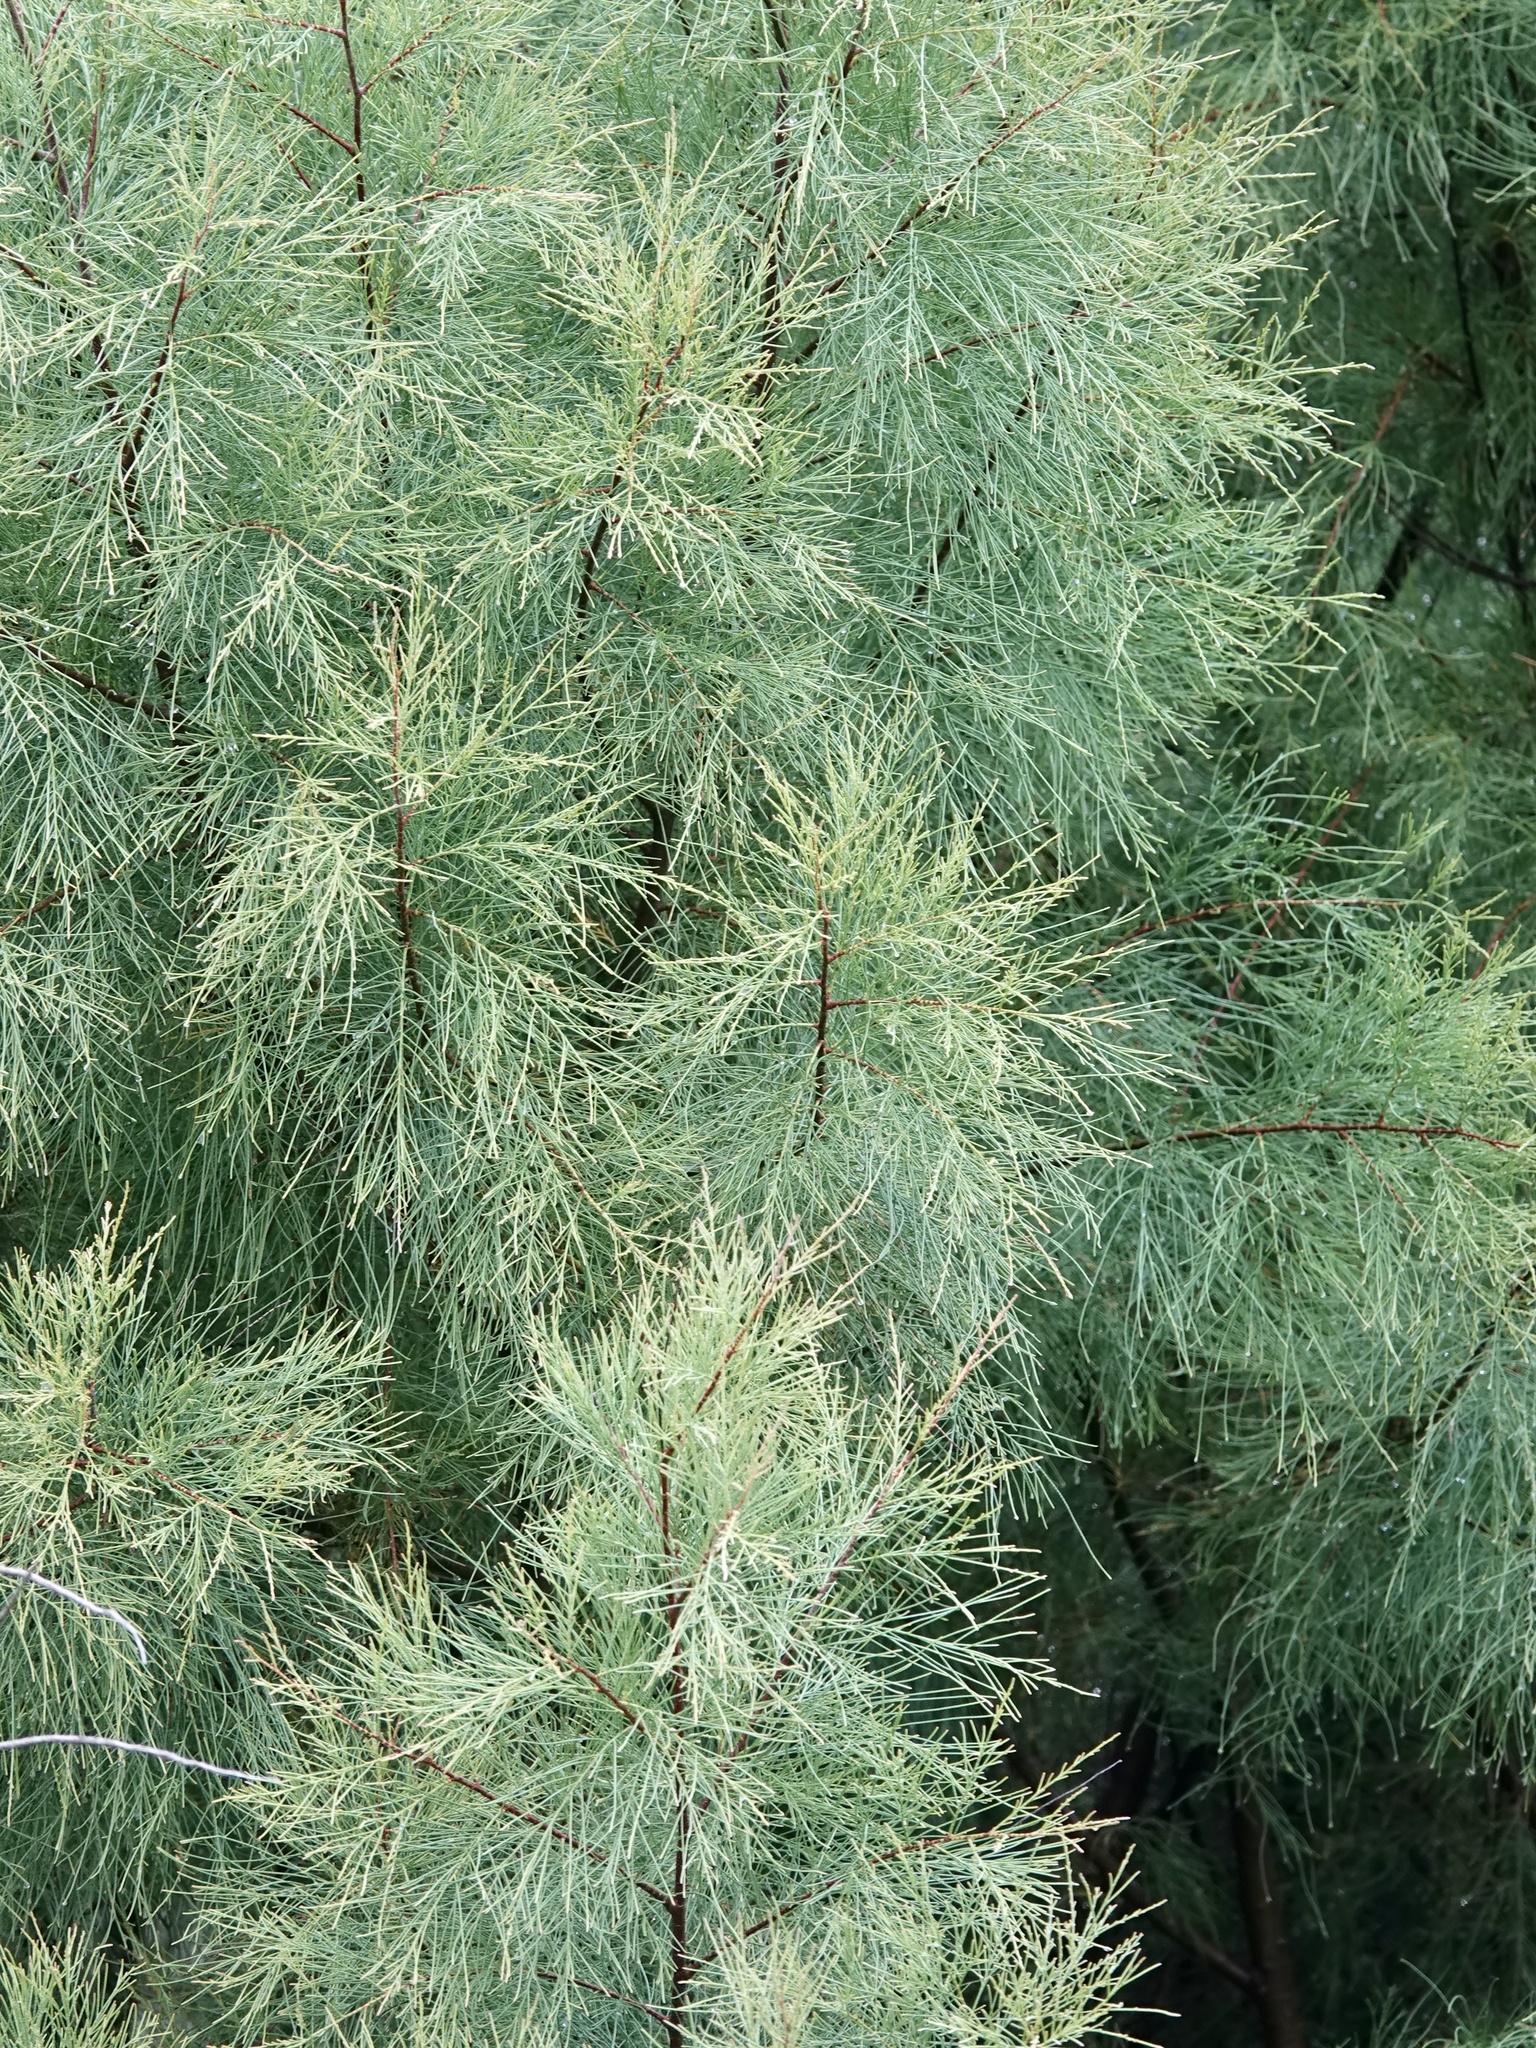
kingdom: Plantae
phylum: Tracheophyta
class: Magnoliopsida
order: Caryophyllales
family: Tamaricaceae
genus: Tamarix
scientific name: Tamarix aphylla
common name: Athel tamarisk
